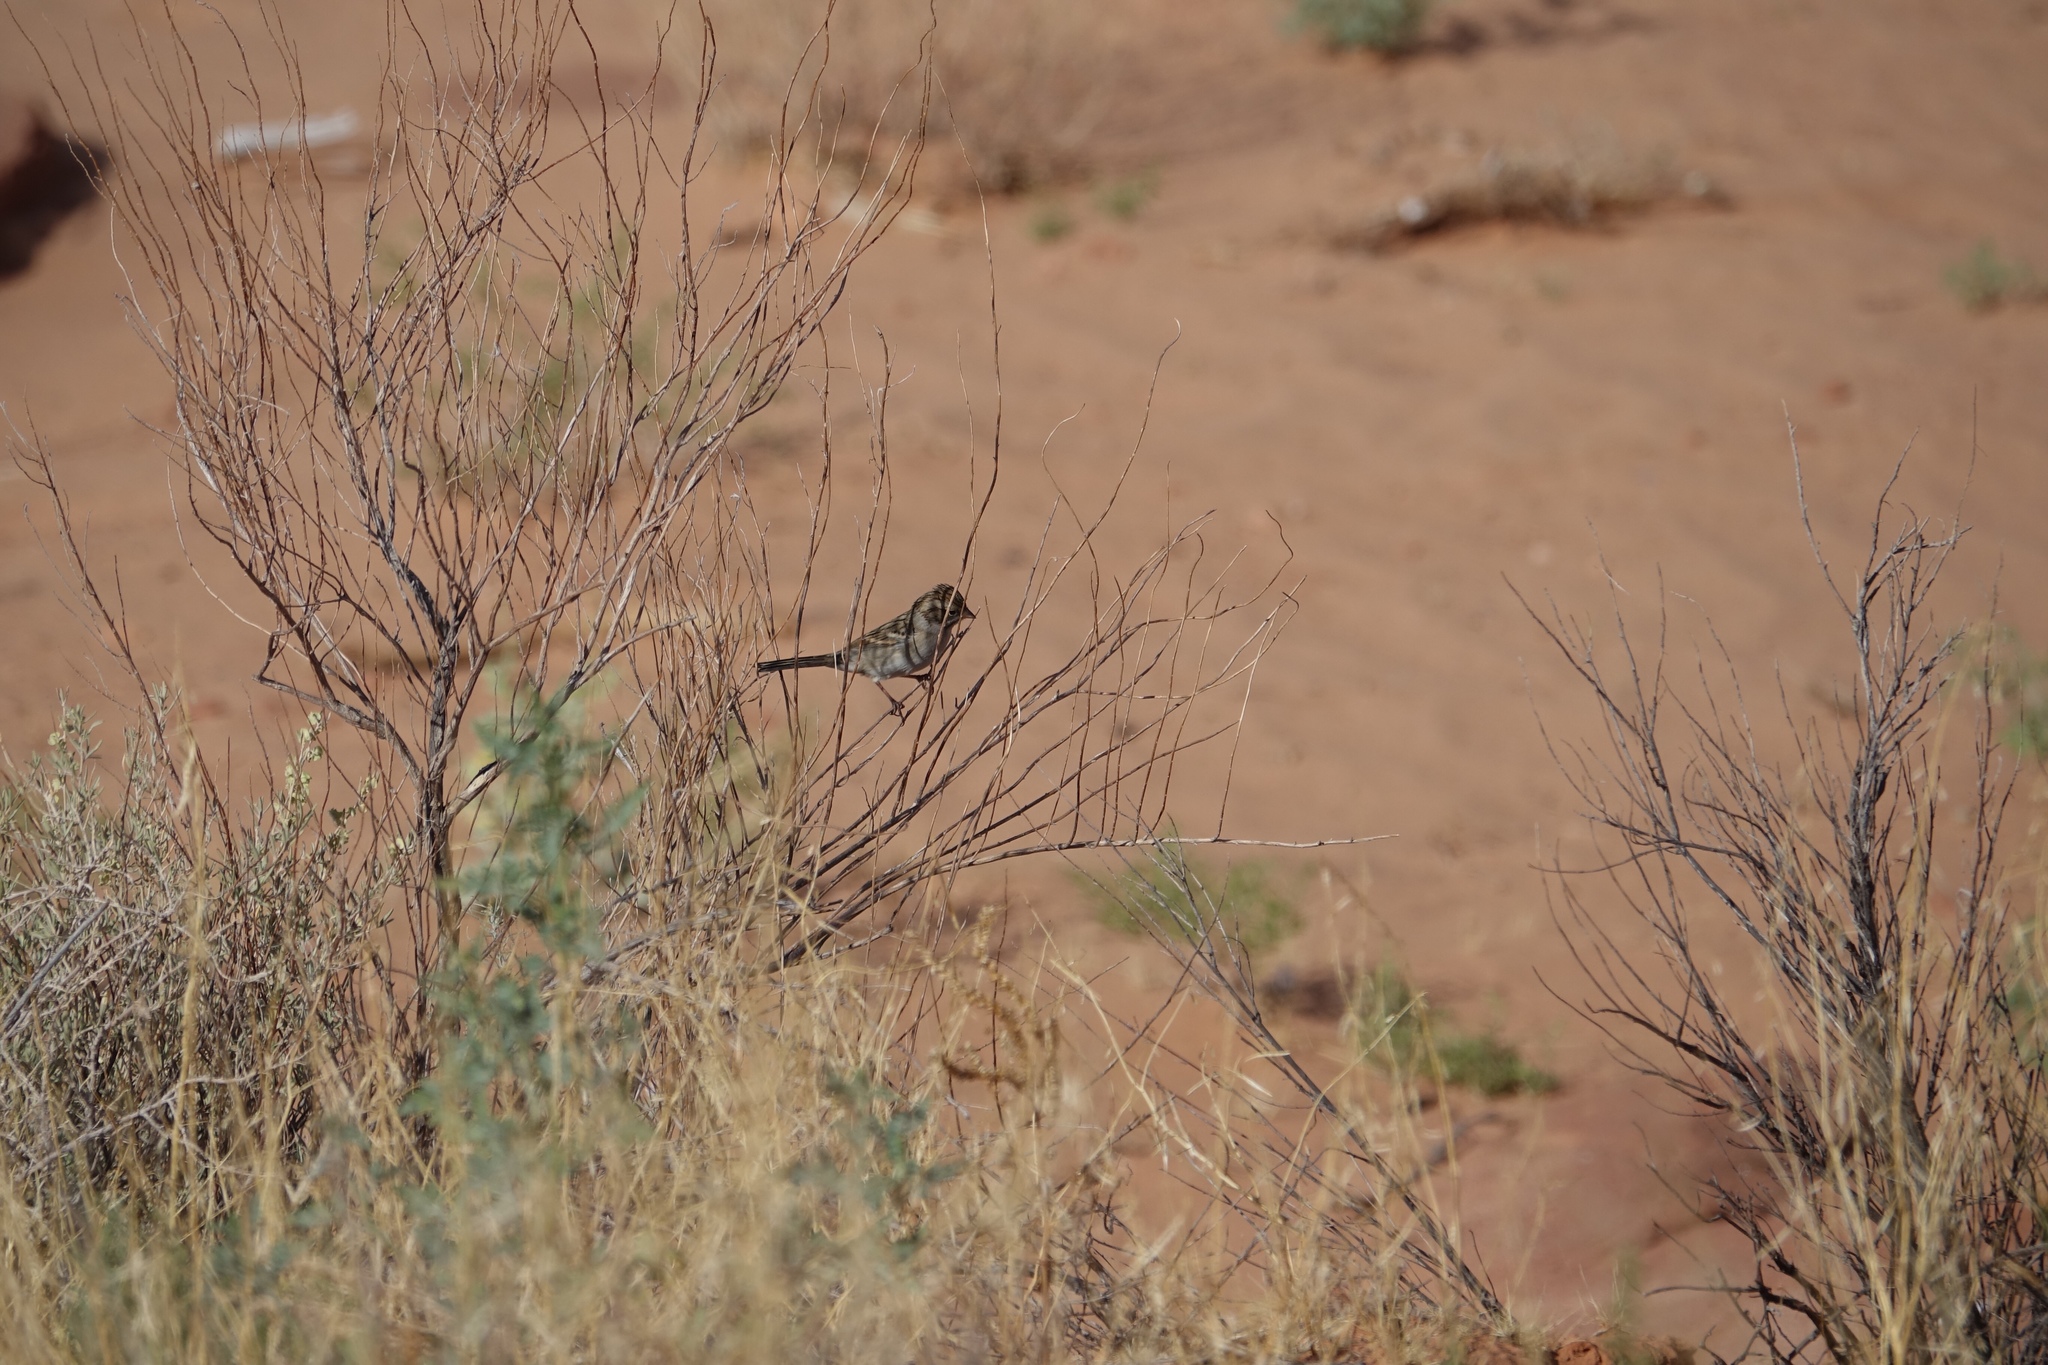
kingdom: Animalia
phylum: Chordata
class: Aves
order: Passeriformes
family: Passerellidae
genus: Spizella
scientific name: Spizella breweri
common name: Brewer's sparrow
